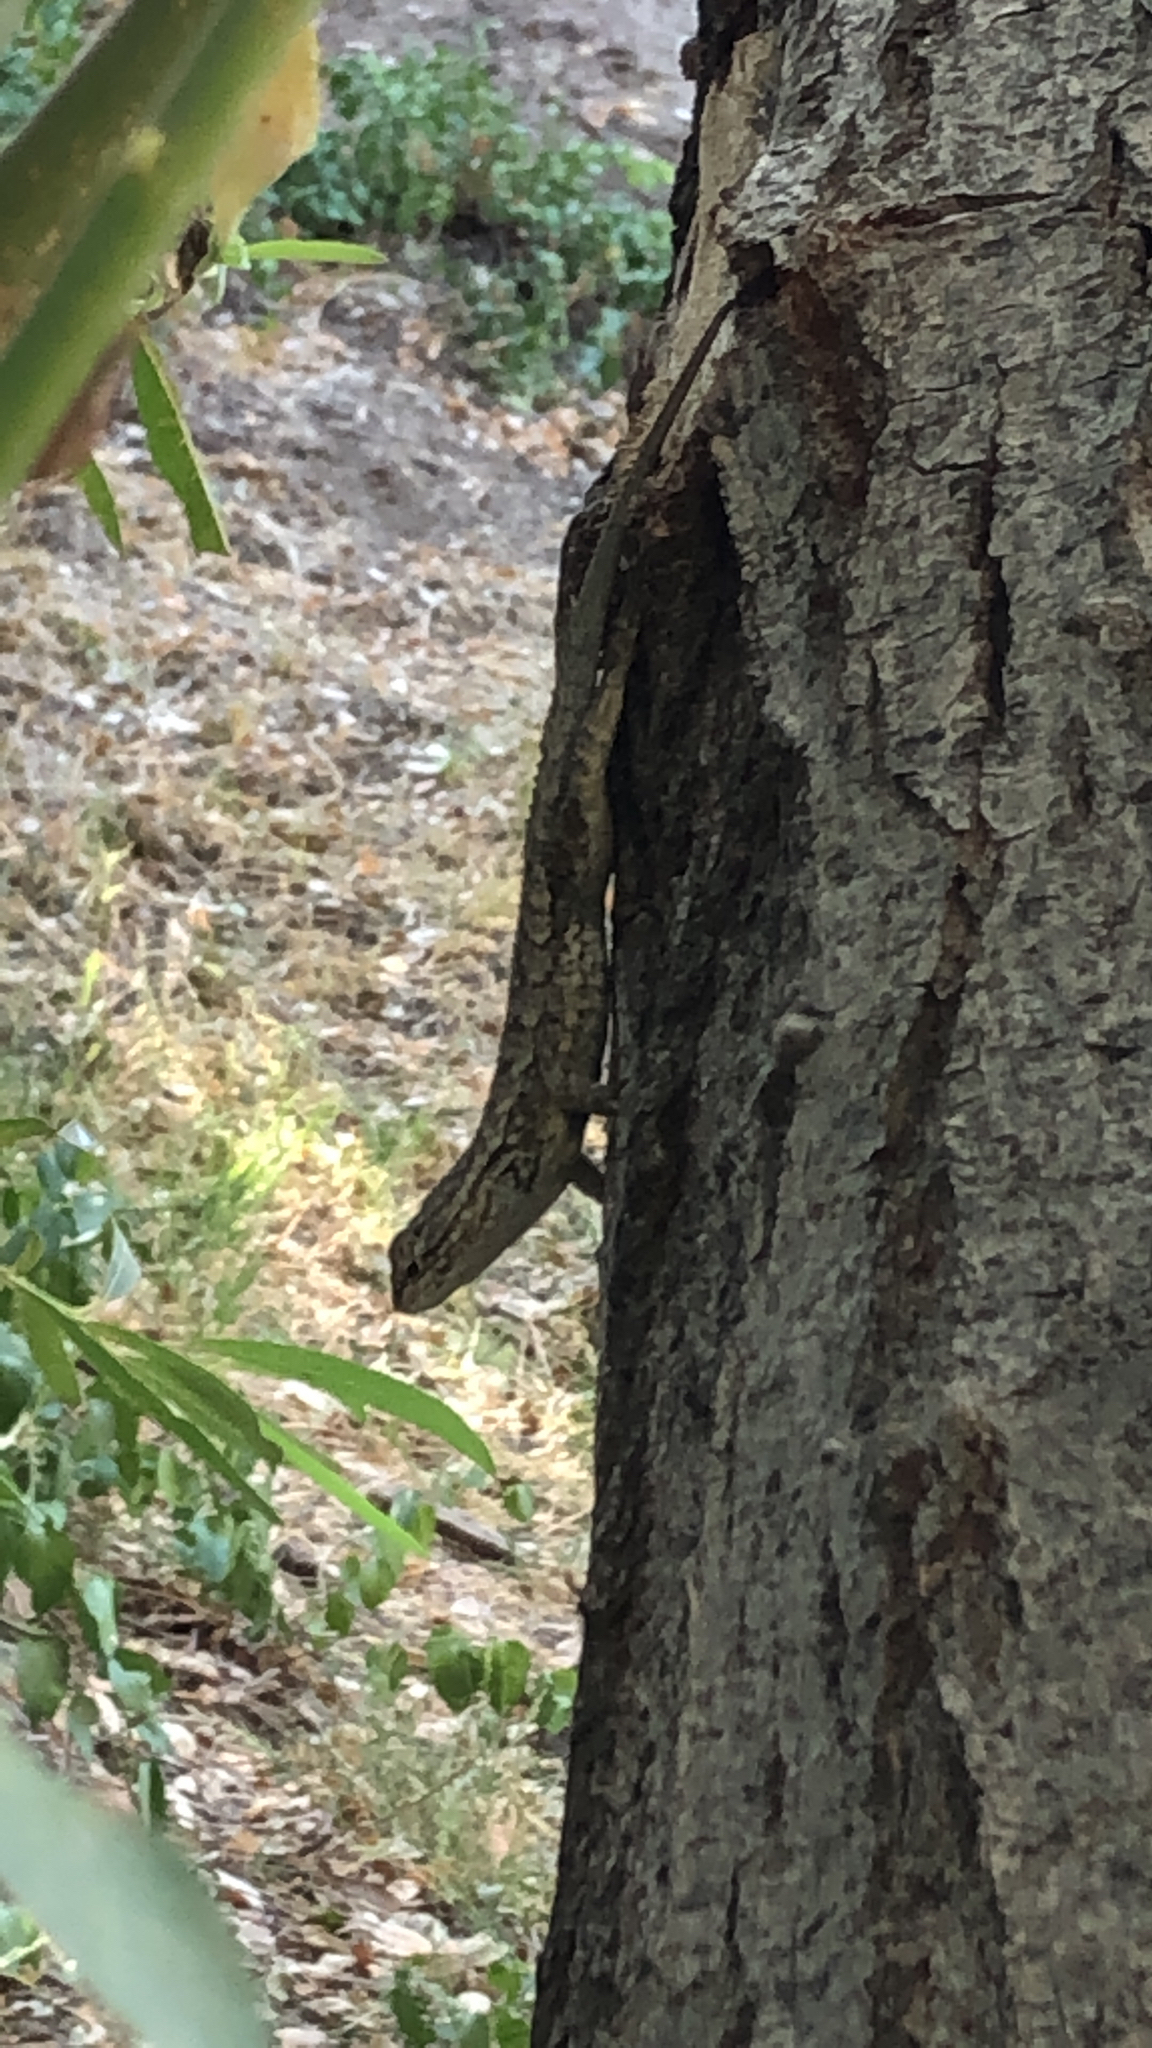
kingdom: Animalia
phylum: Chordata
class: Squamata
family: Phrynosomatidae
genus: Sceloporus
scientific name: Sceloporus occidentalis
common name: Western fence lizard
